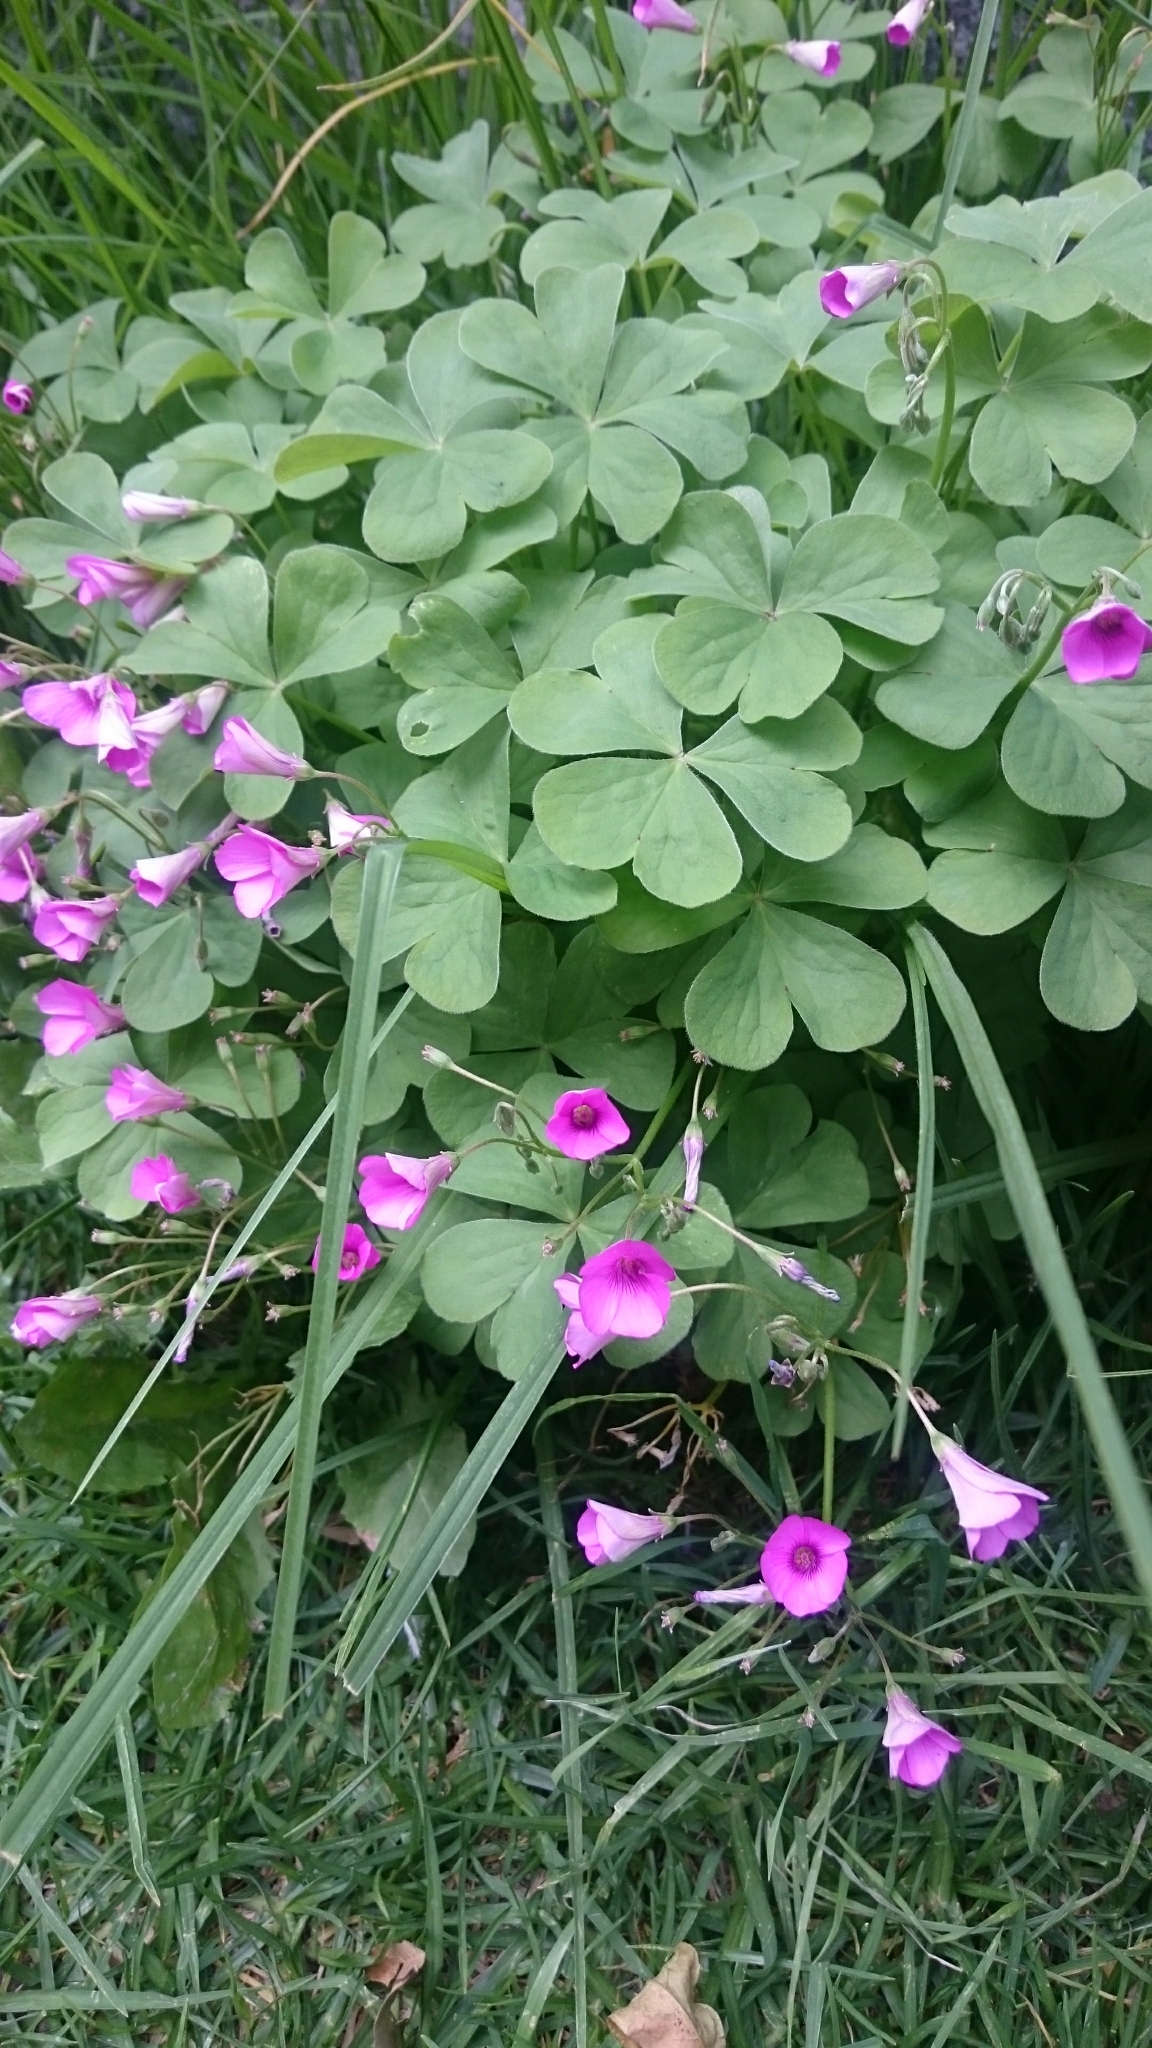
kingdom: Plantae
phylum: Tracheophyta
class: Magnoliopsida
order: Oxalidales
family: Oxalidaceae
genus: Oxalis
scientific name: Oxalis articulata
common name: Pink-sorrel
